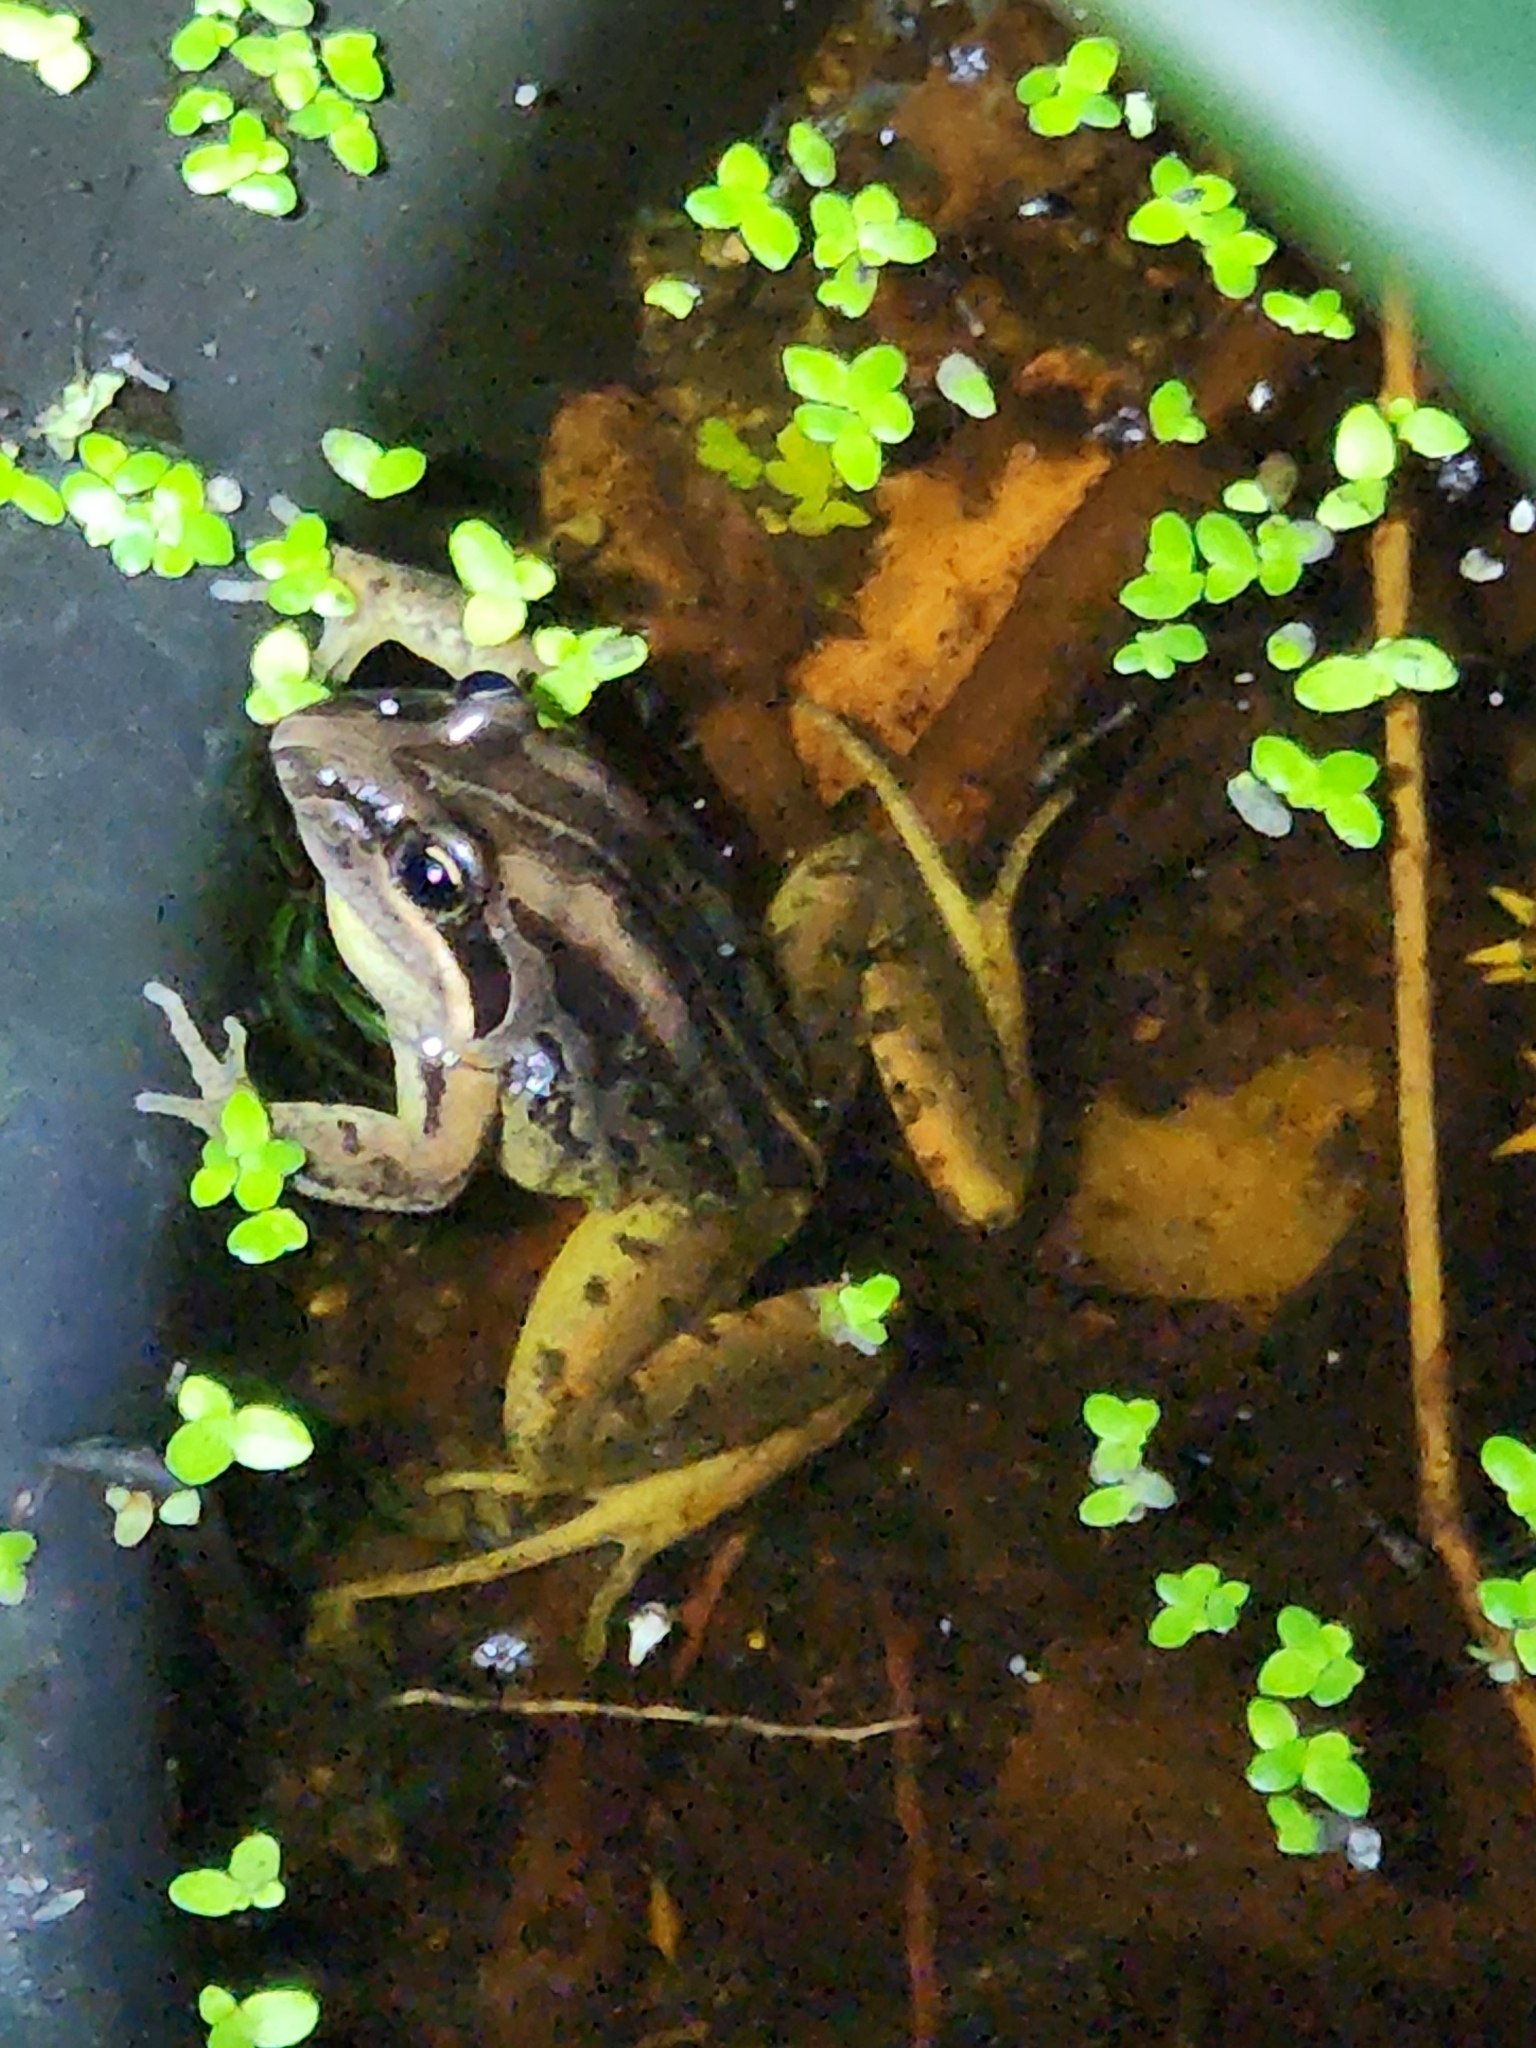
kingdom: Animalia
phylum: Chordata
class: Amphibia
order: Anura
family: Limnodynastidae
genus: Limnodynastes
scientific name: Limnodynastes peronii
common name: Brown frog
